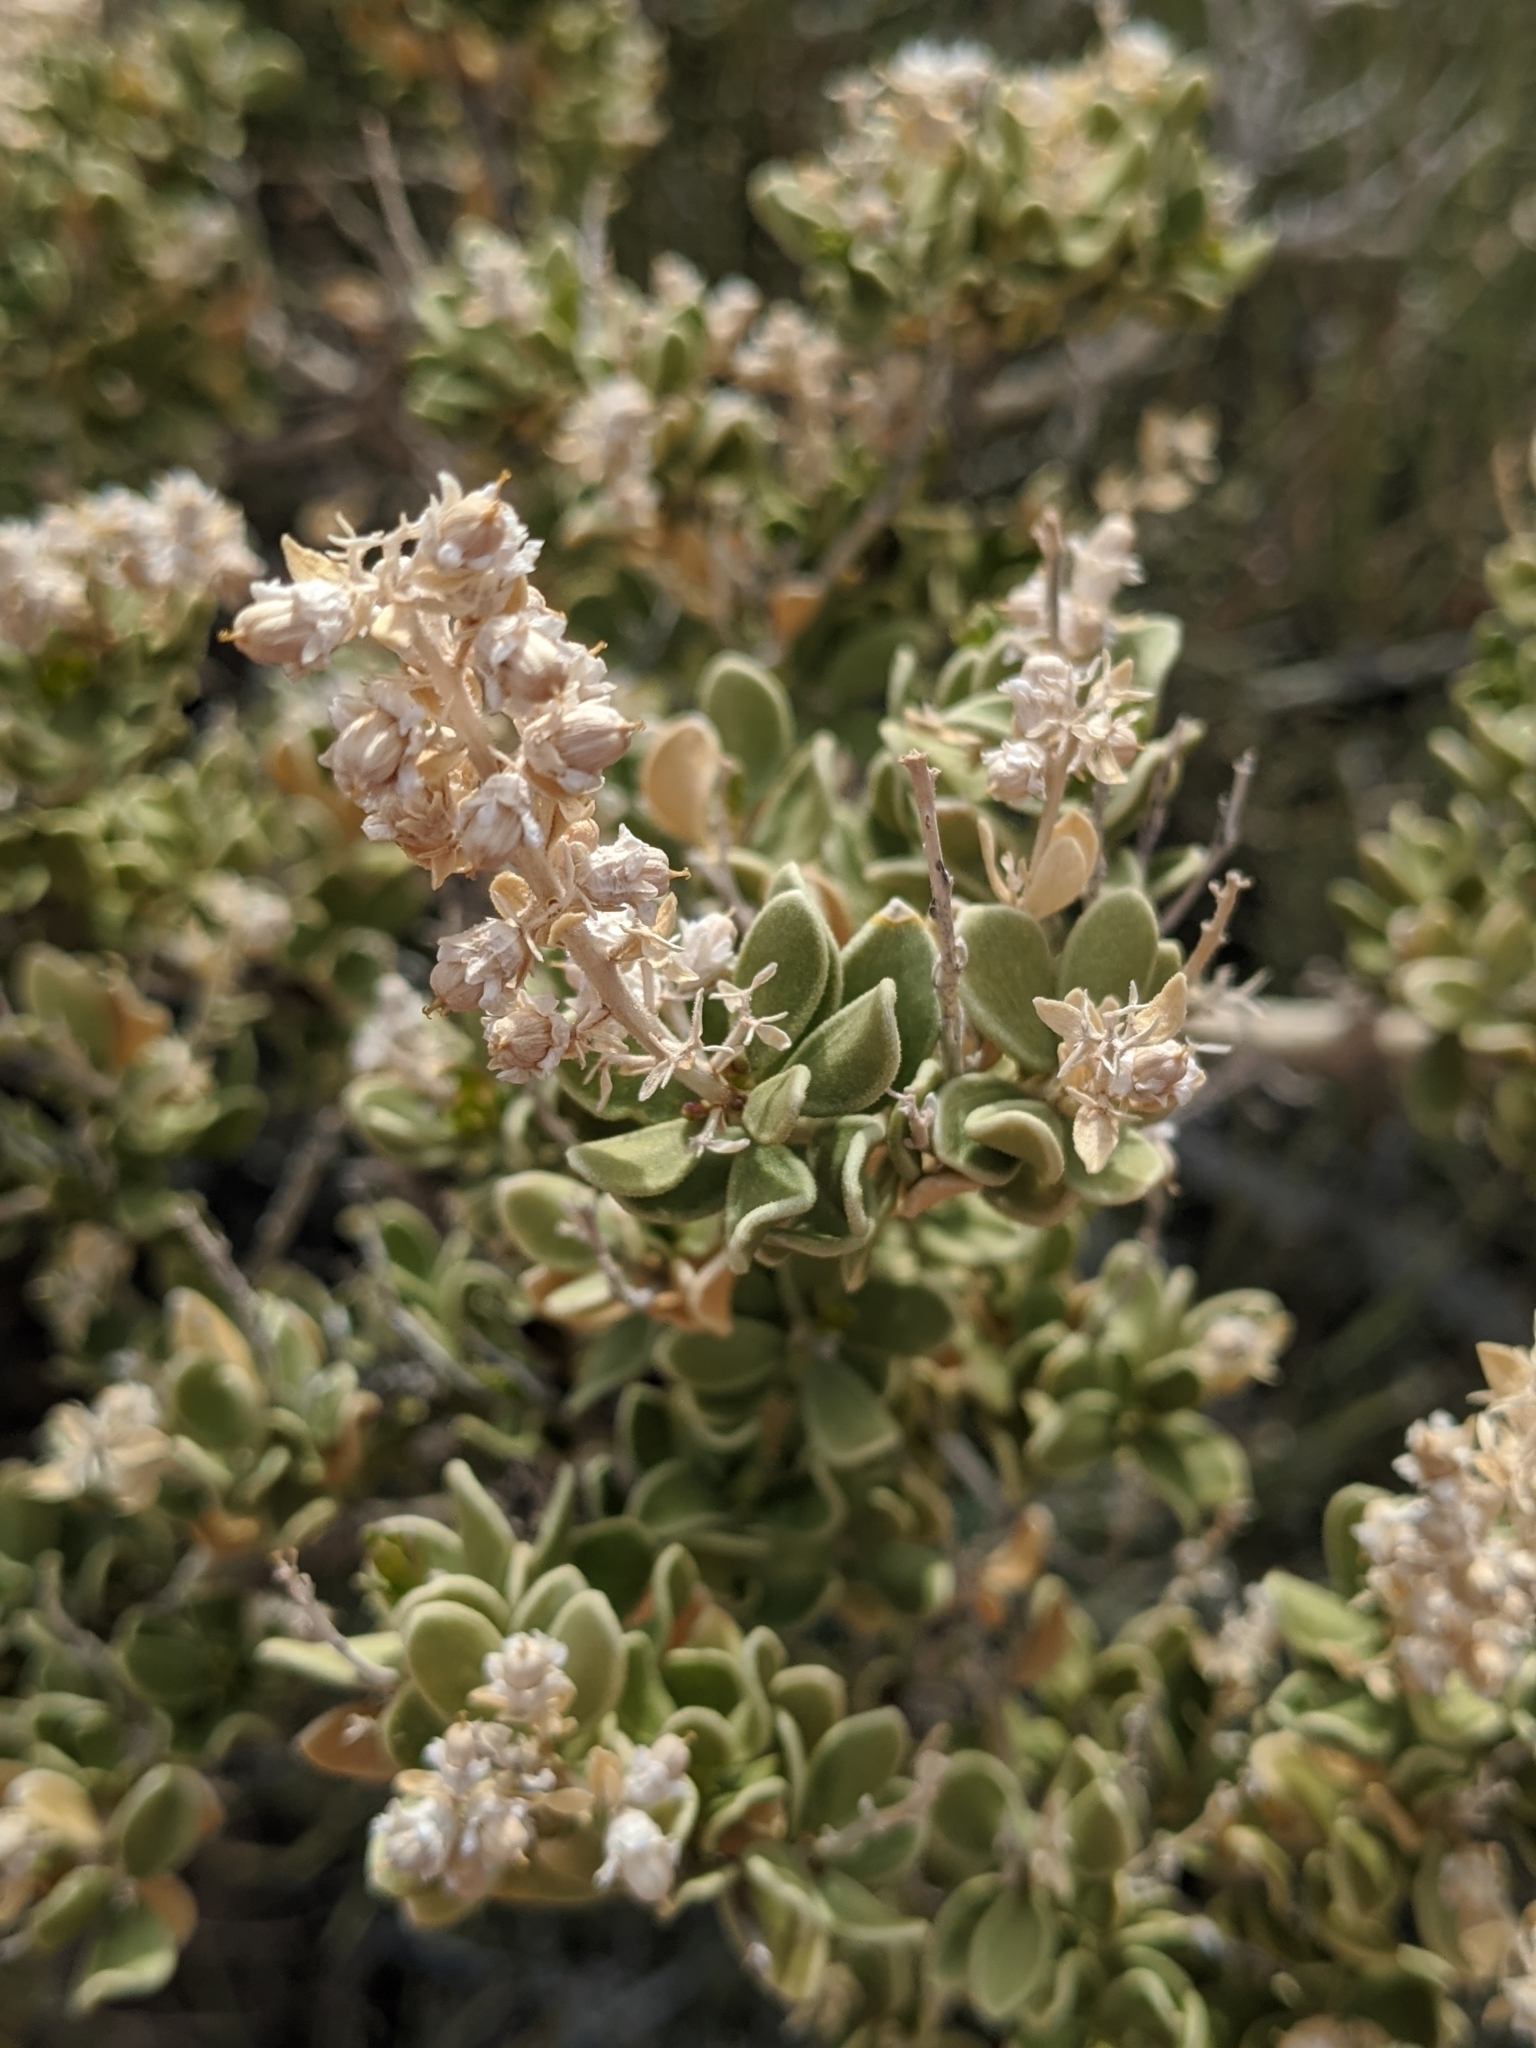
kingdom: Plantae
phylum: Tracheophyta
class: Magnoliopsida
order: Celastrales
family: Celastraceae
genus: Mortonia
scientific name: Mortonia utahensis
